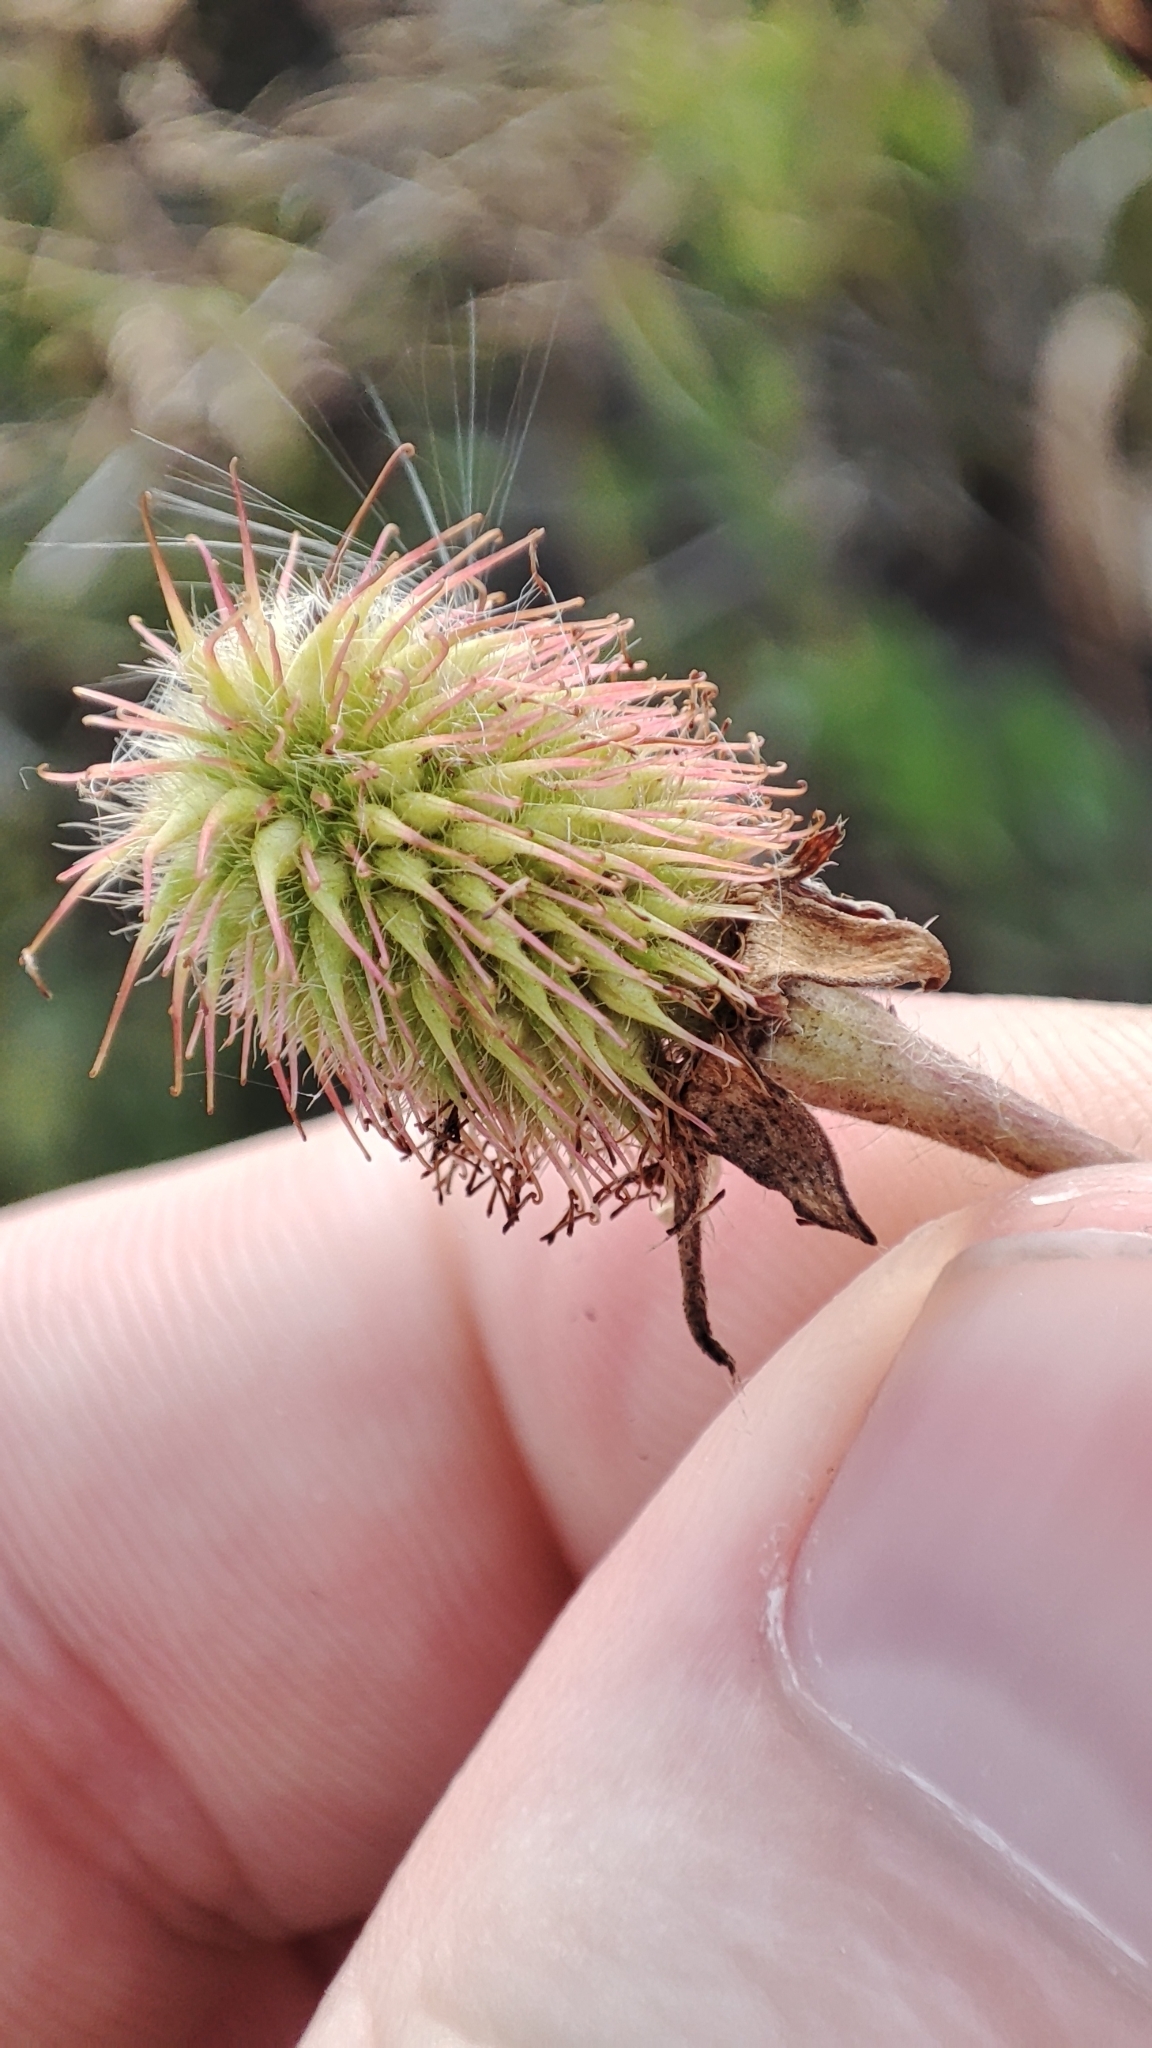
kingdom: Plantae
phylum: Tracheophyta
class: Magnoliopsida
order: Rosales
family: Rosaceae
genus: Geum
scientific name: Geum aleppicum
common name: Yellow avens
